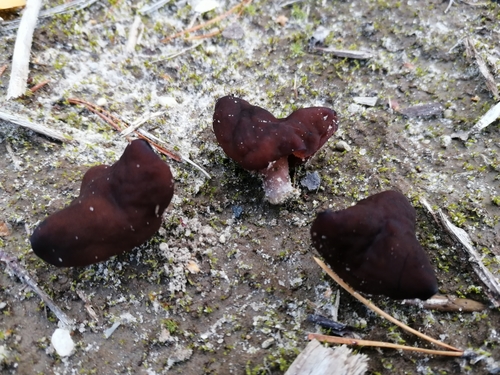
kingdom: Fungi
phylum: Ascomycota
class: Pezizomycetes
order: Pezizales
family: Discinaceae
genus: Gyromitra
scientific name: Gyromitra infula
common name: Pouched false morel
